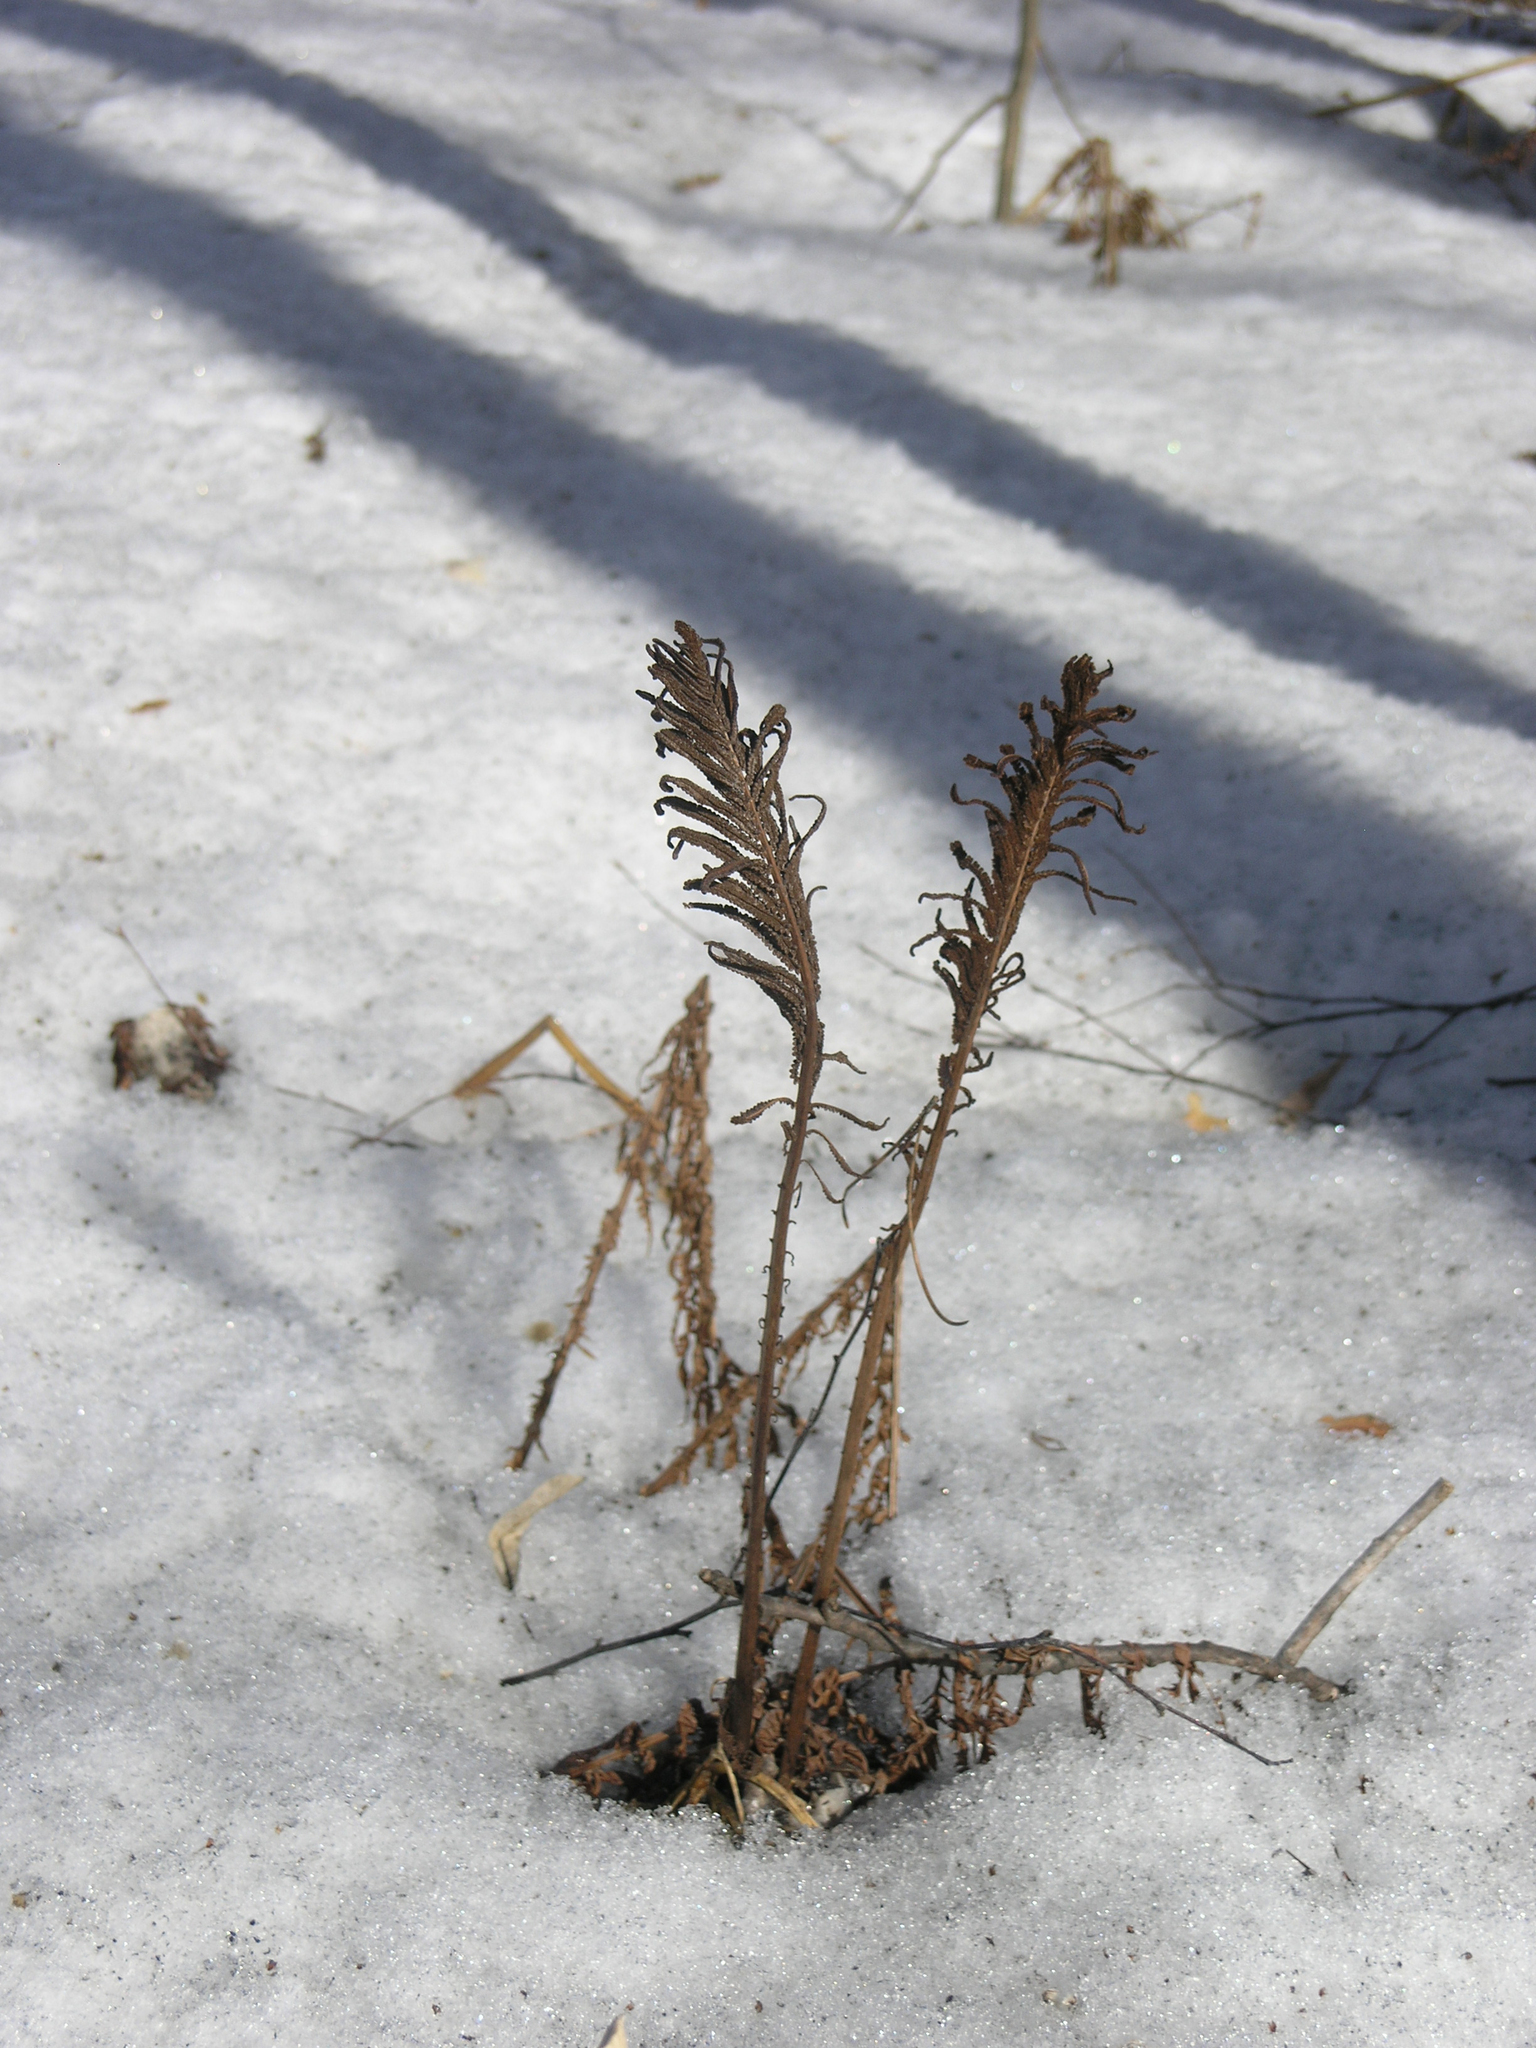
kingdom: Plantae
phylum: Tracheophyta
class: Polypodiopsida
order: Polypodiales
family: Onocleaceae
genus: Matteuccia
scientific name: Matteuccia struthiopteris
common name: Ostrich fern
